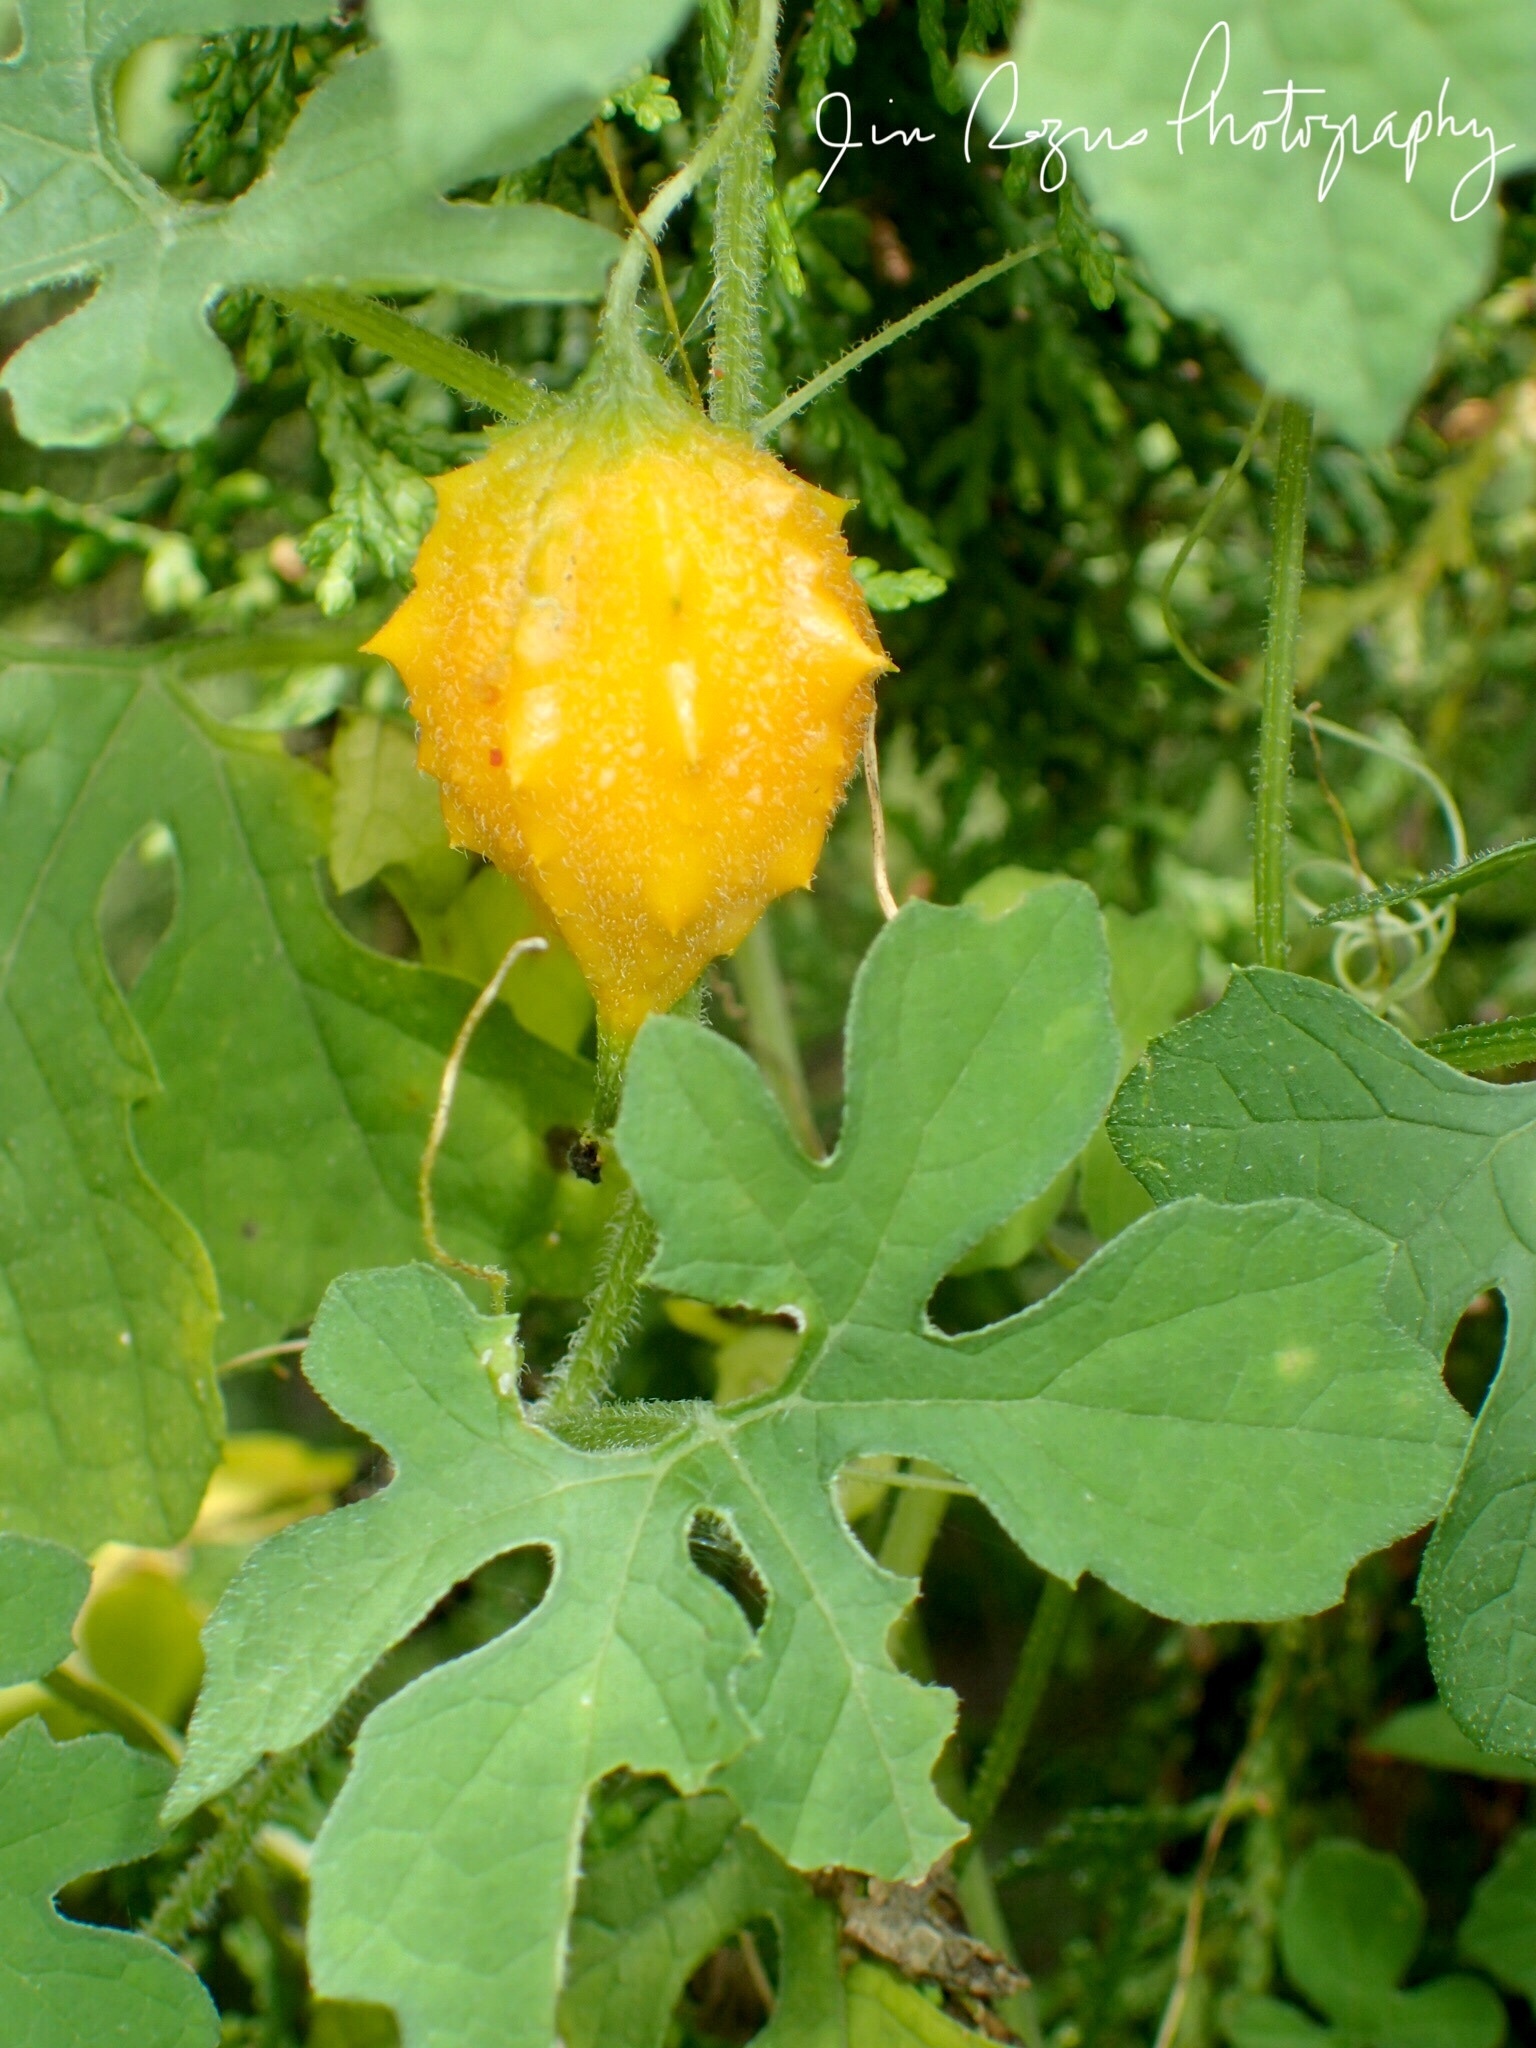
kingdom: Plantae
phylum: Tracheophyta
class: Magnoliopsida
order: Cucurbitales
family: Cucurbitaceae
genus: Momordica
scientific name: Momordica charantia
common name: Balsampear
